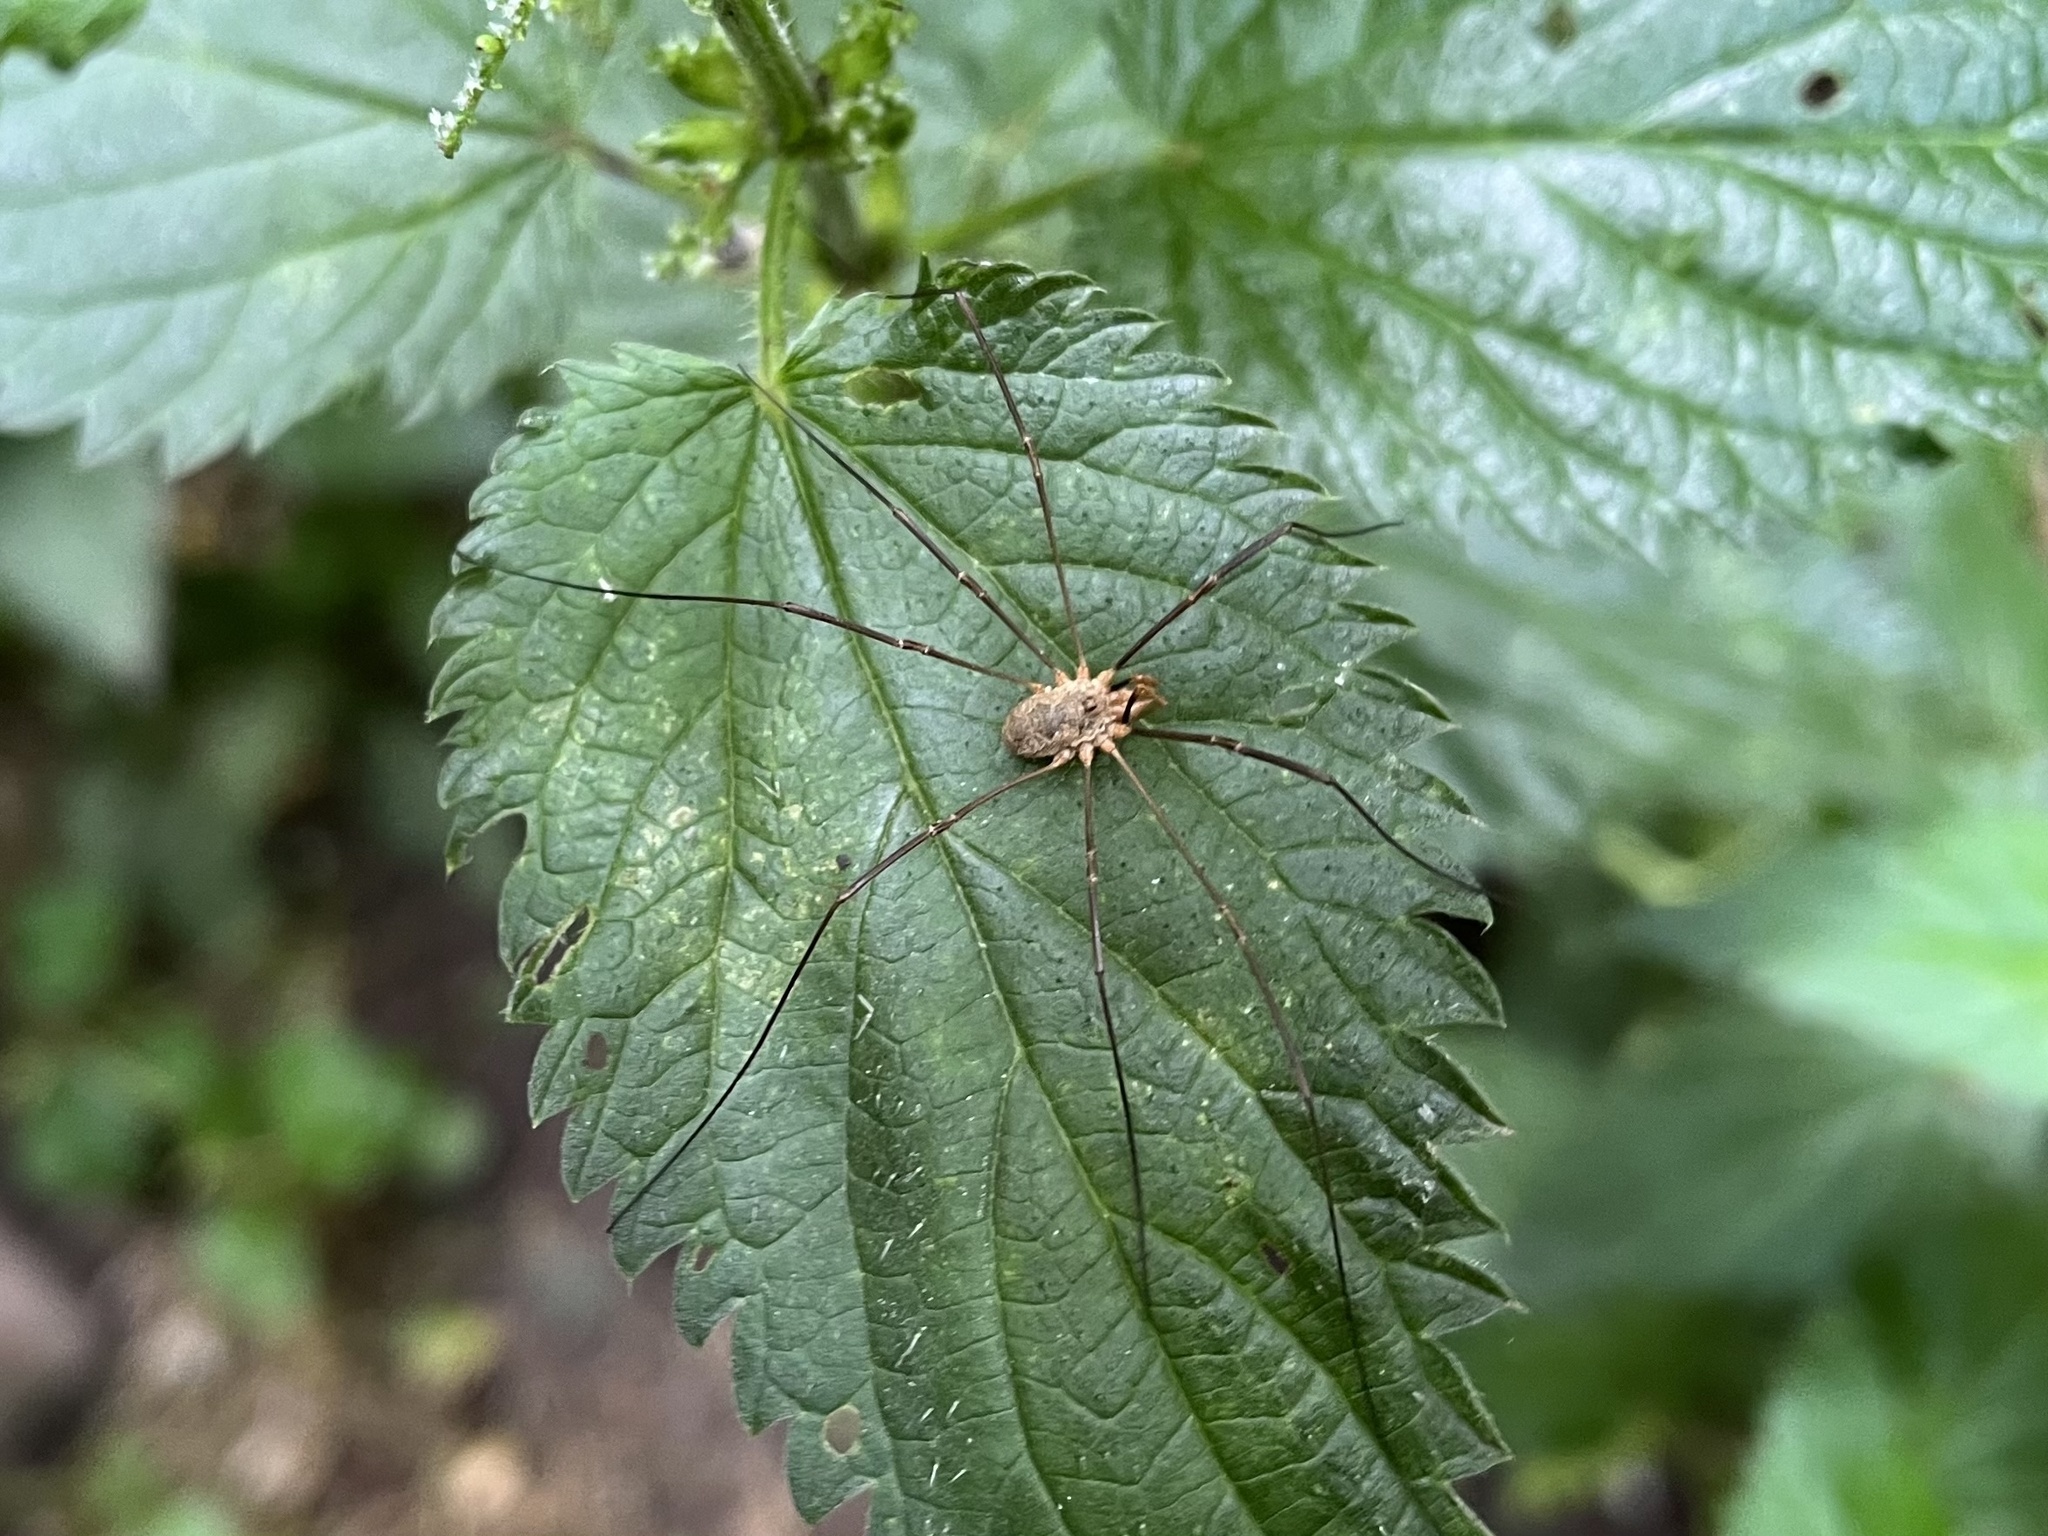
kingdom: Animalia
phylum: Arthropoda
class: Arachnida
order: Opiliones
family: Phalangiidae
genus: Phalangium
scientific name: Phalangium opilio
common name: Daddy longleg
